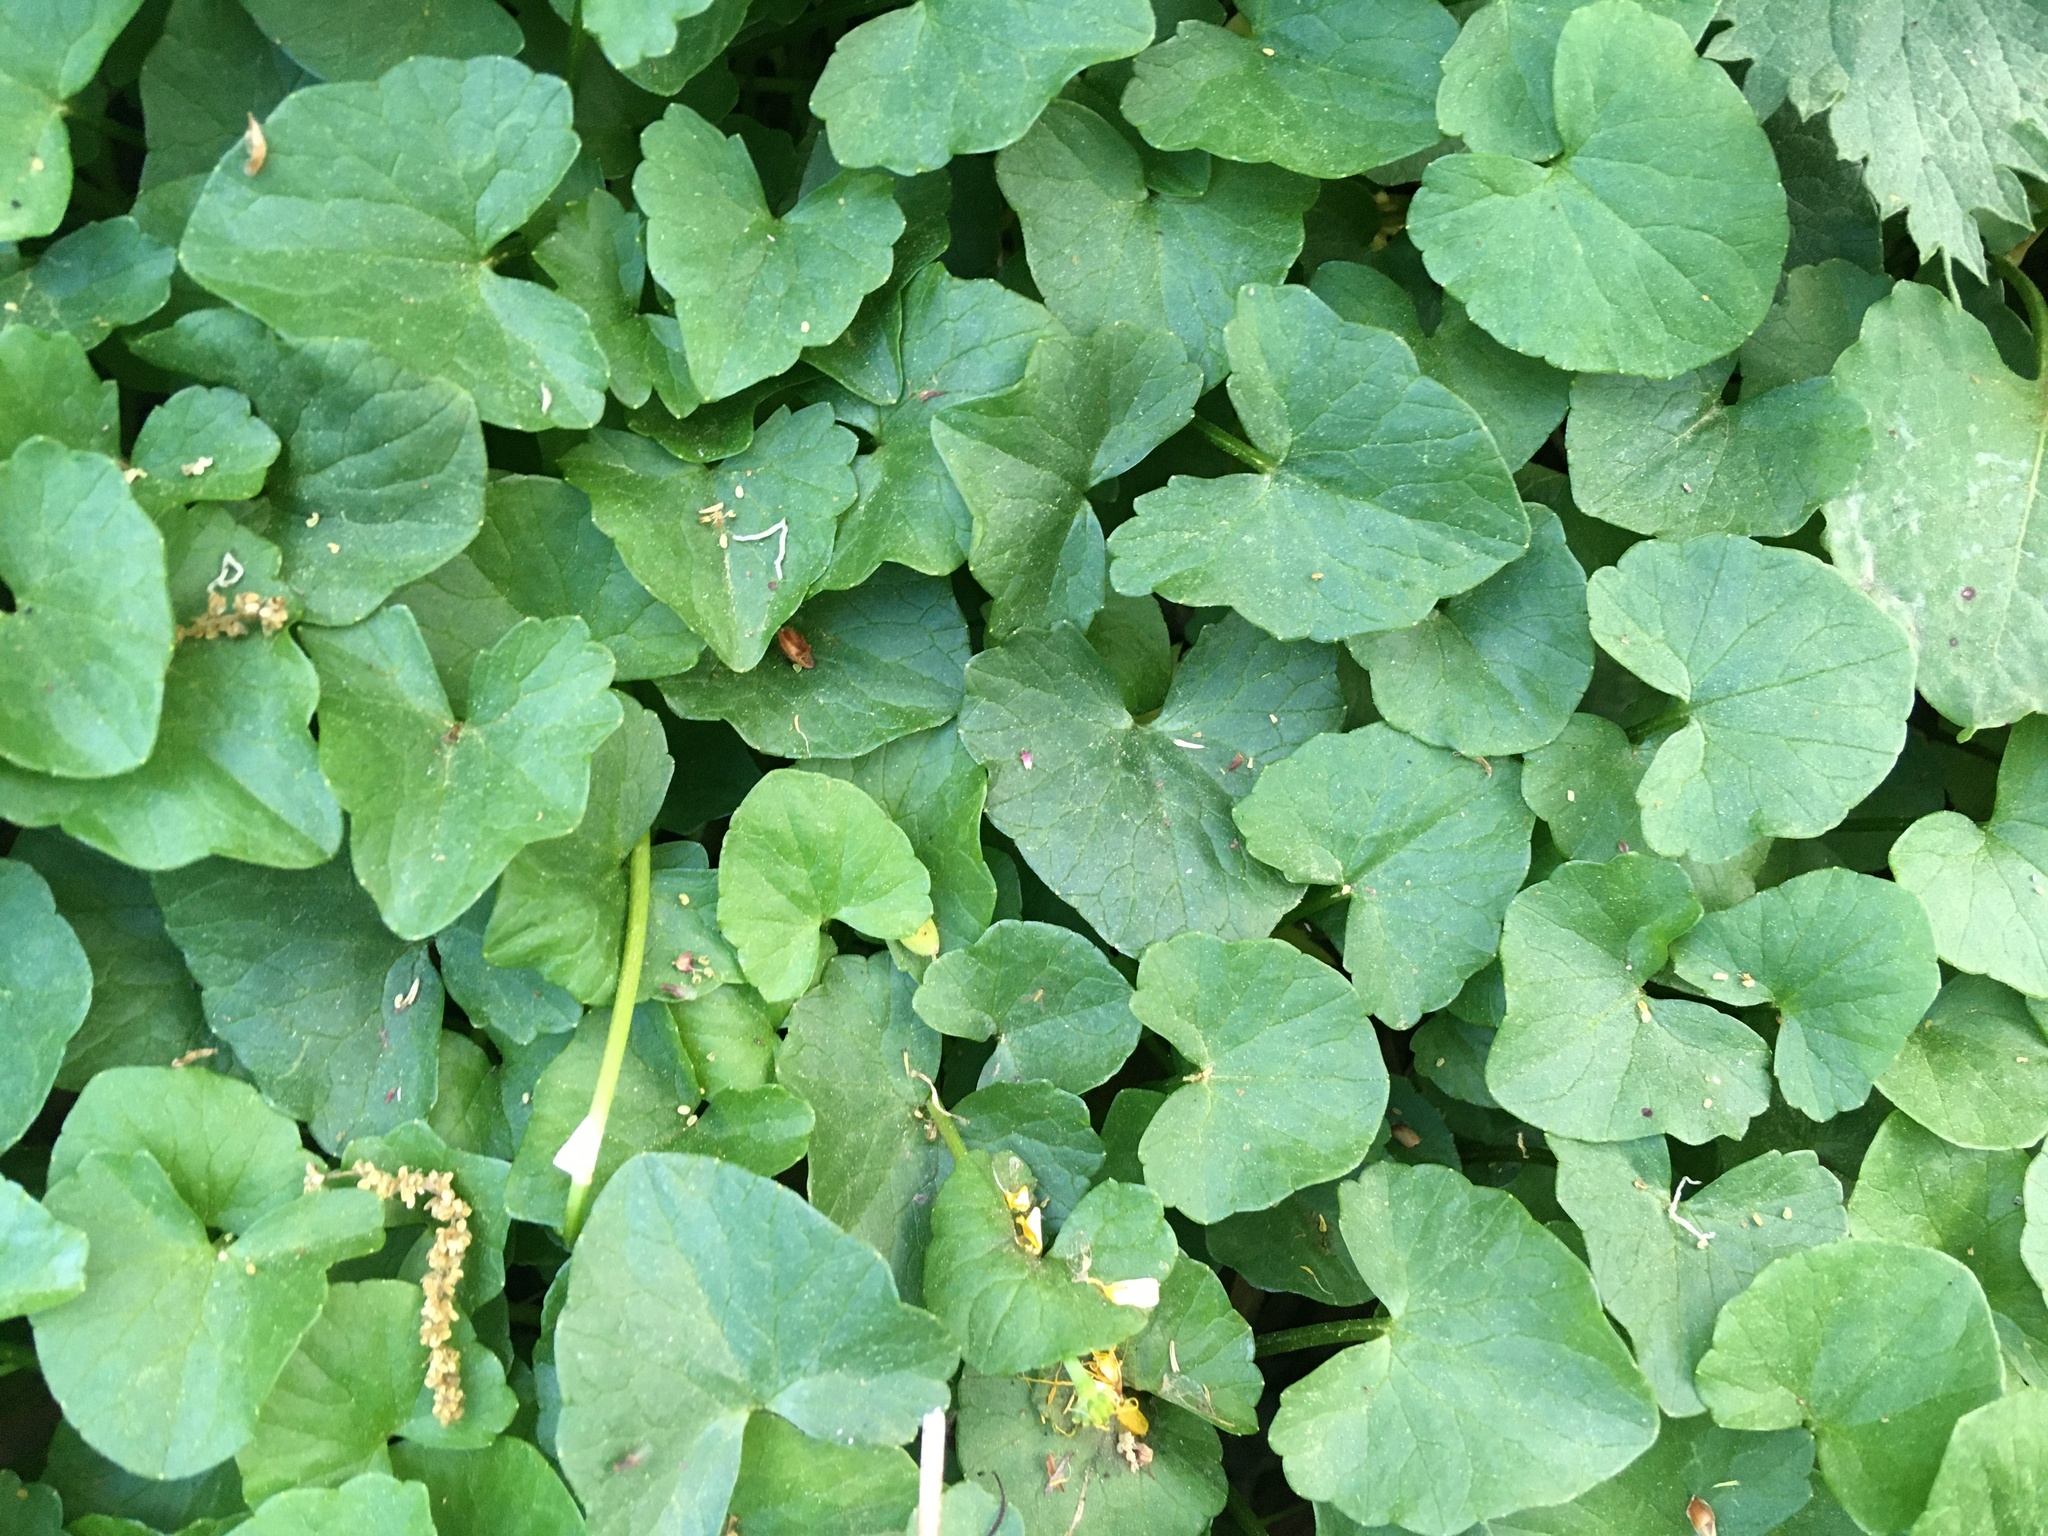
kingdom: Plantae
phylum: Tracheophyta
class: Magnoliopsida
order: Ranunculales
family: Ranunculaceae
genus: Ficaria
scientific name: Ficaria verna
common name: Lesser celandine
